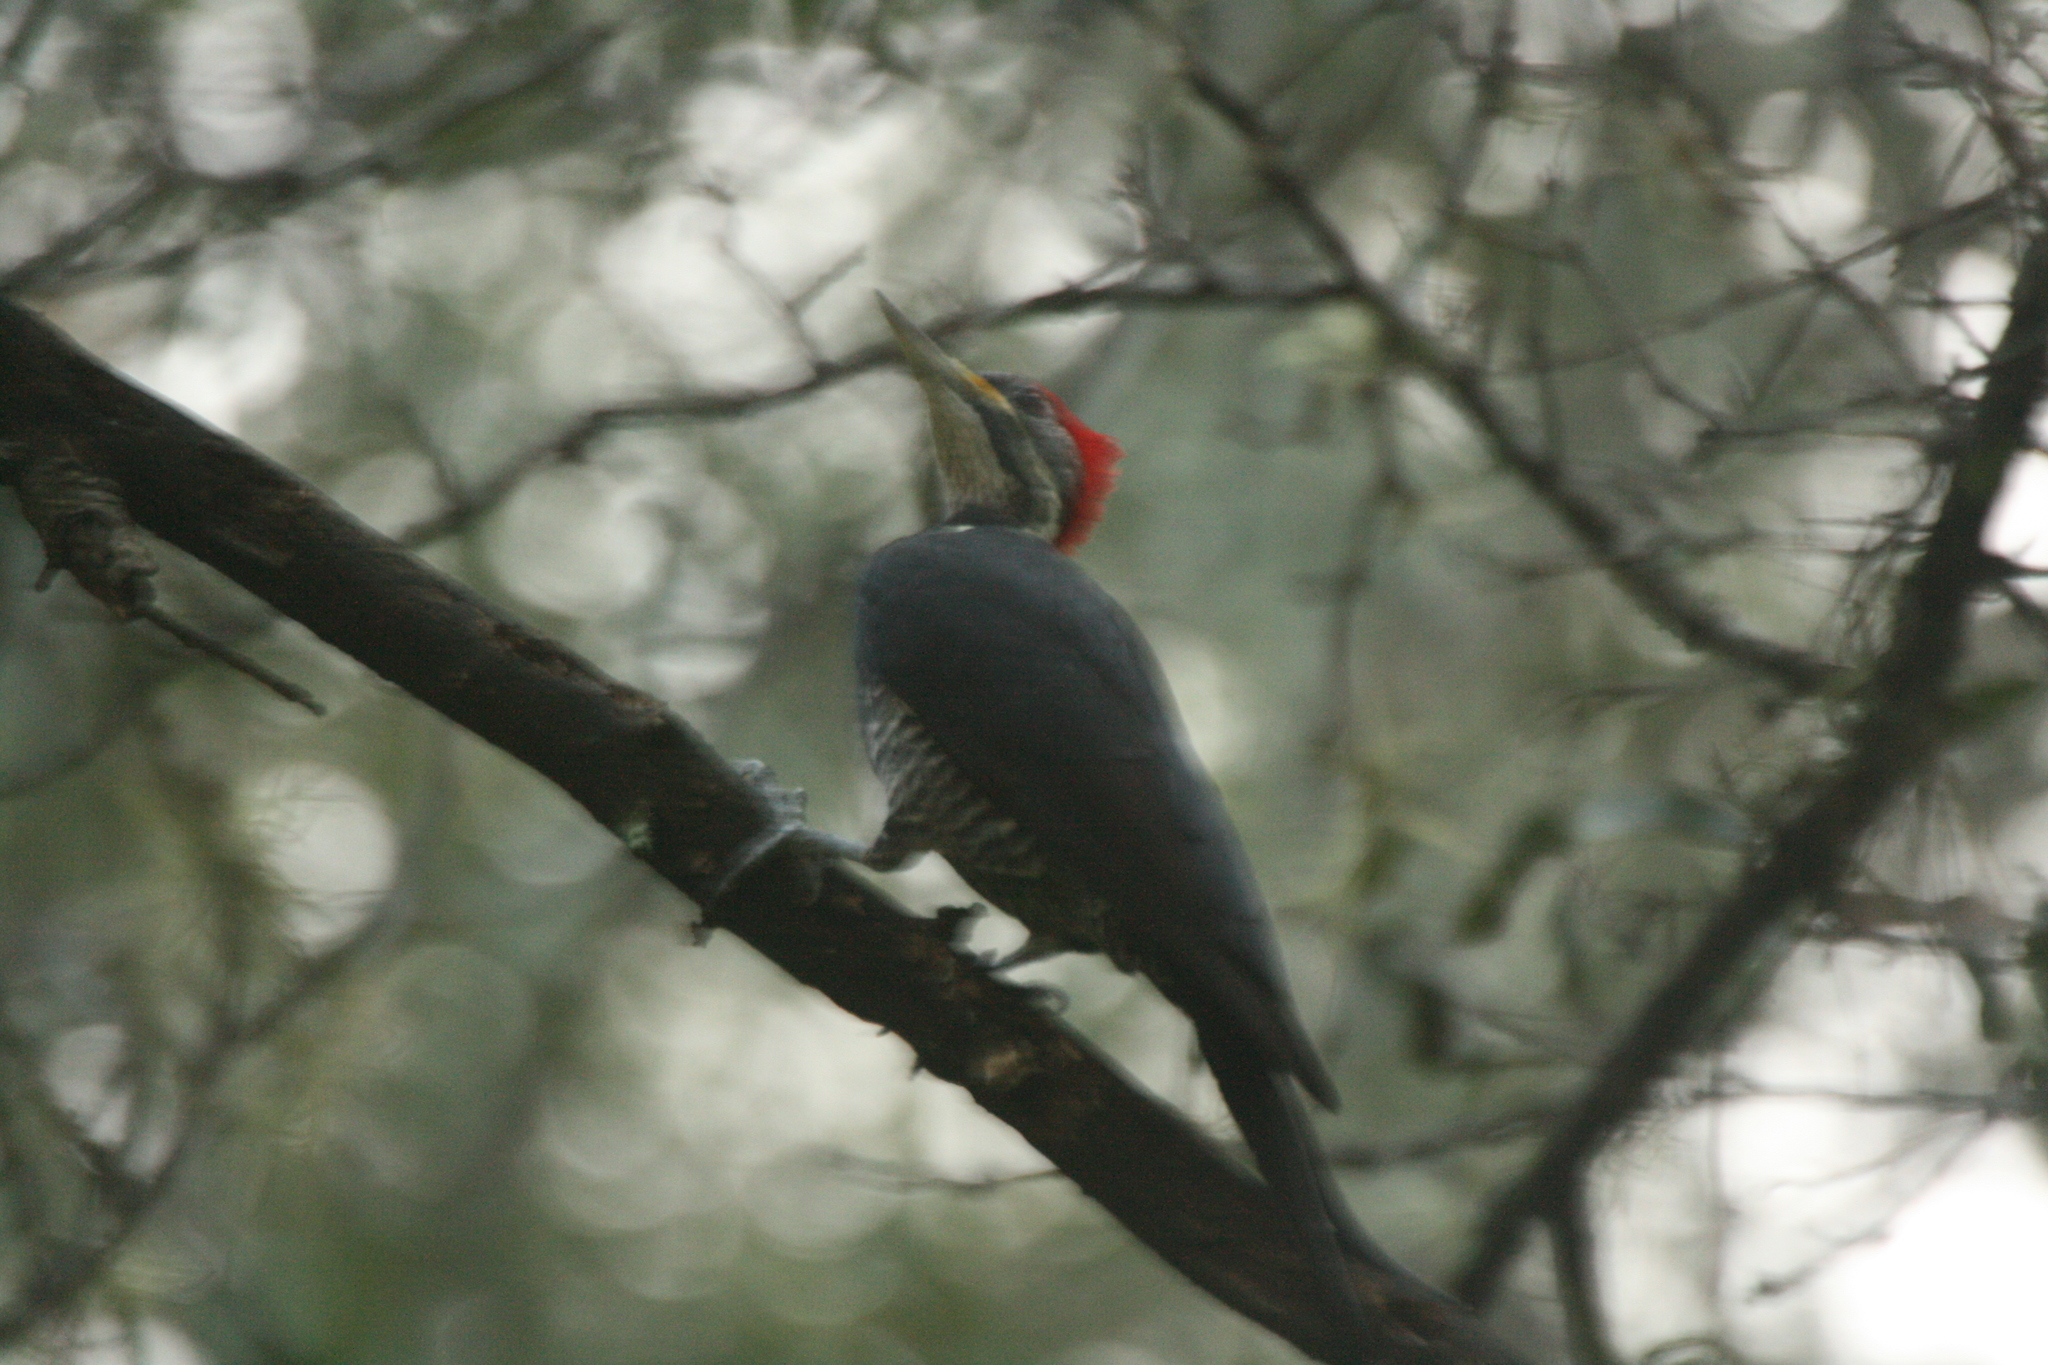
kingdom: Animalia
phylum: Chordata
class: Aves
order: Piciformes
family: Picidae
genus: Dryocopus
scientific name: Dryocopus lineatus
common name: Lineated woodpecker
